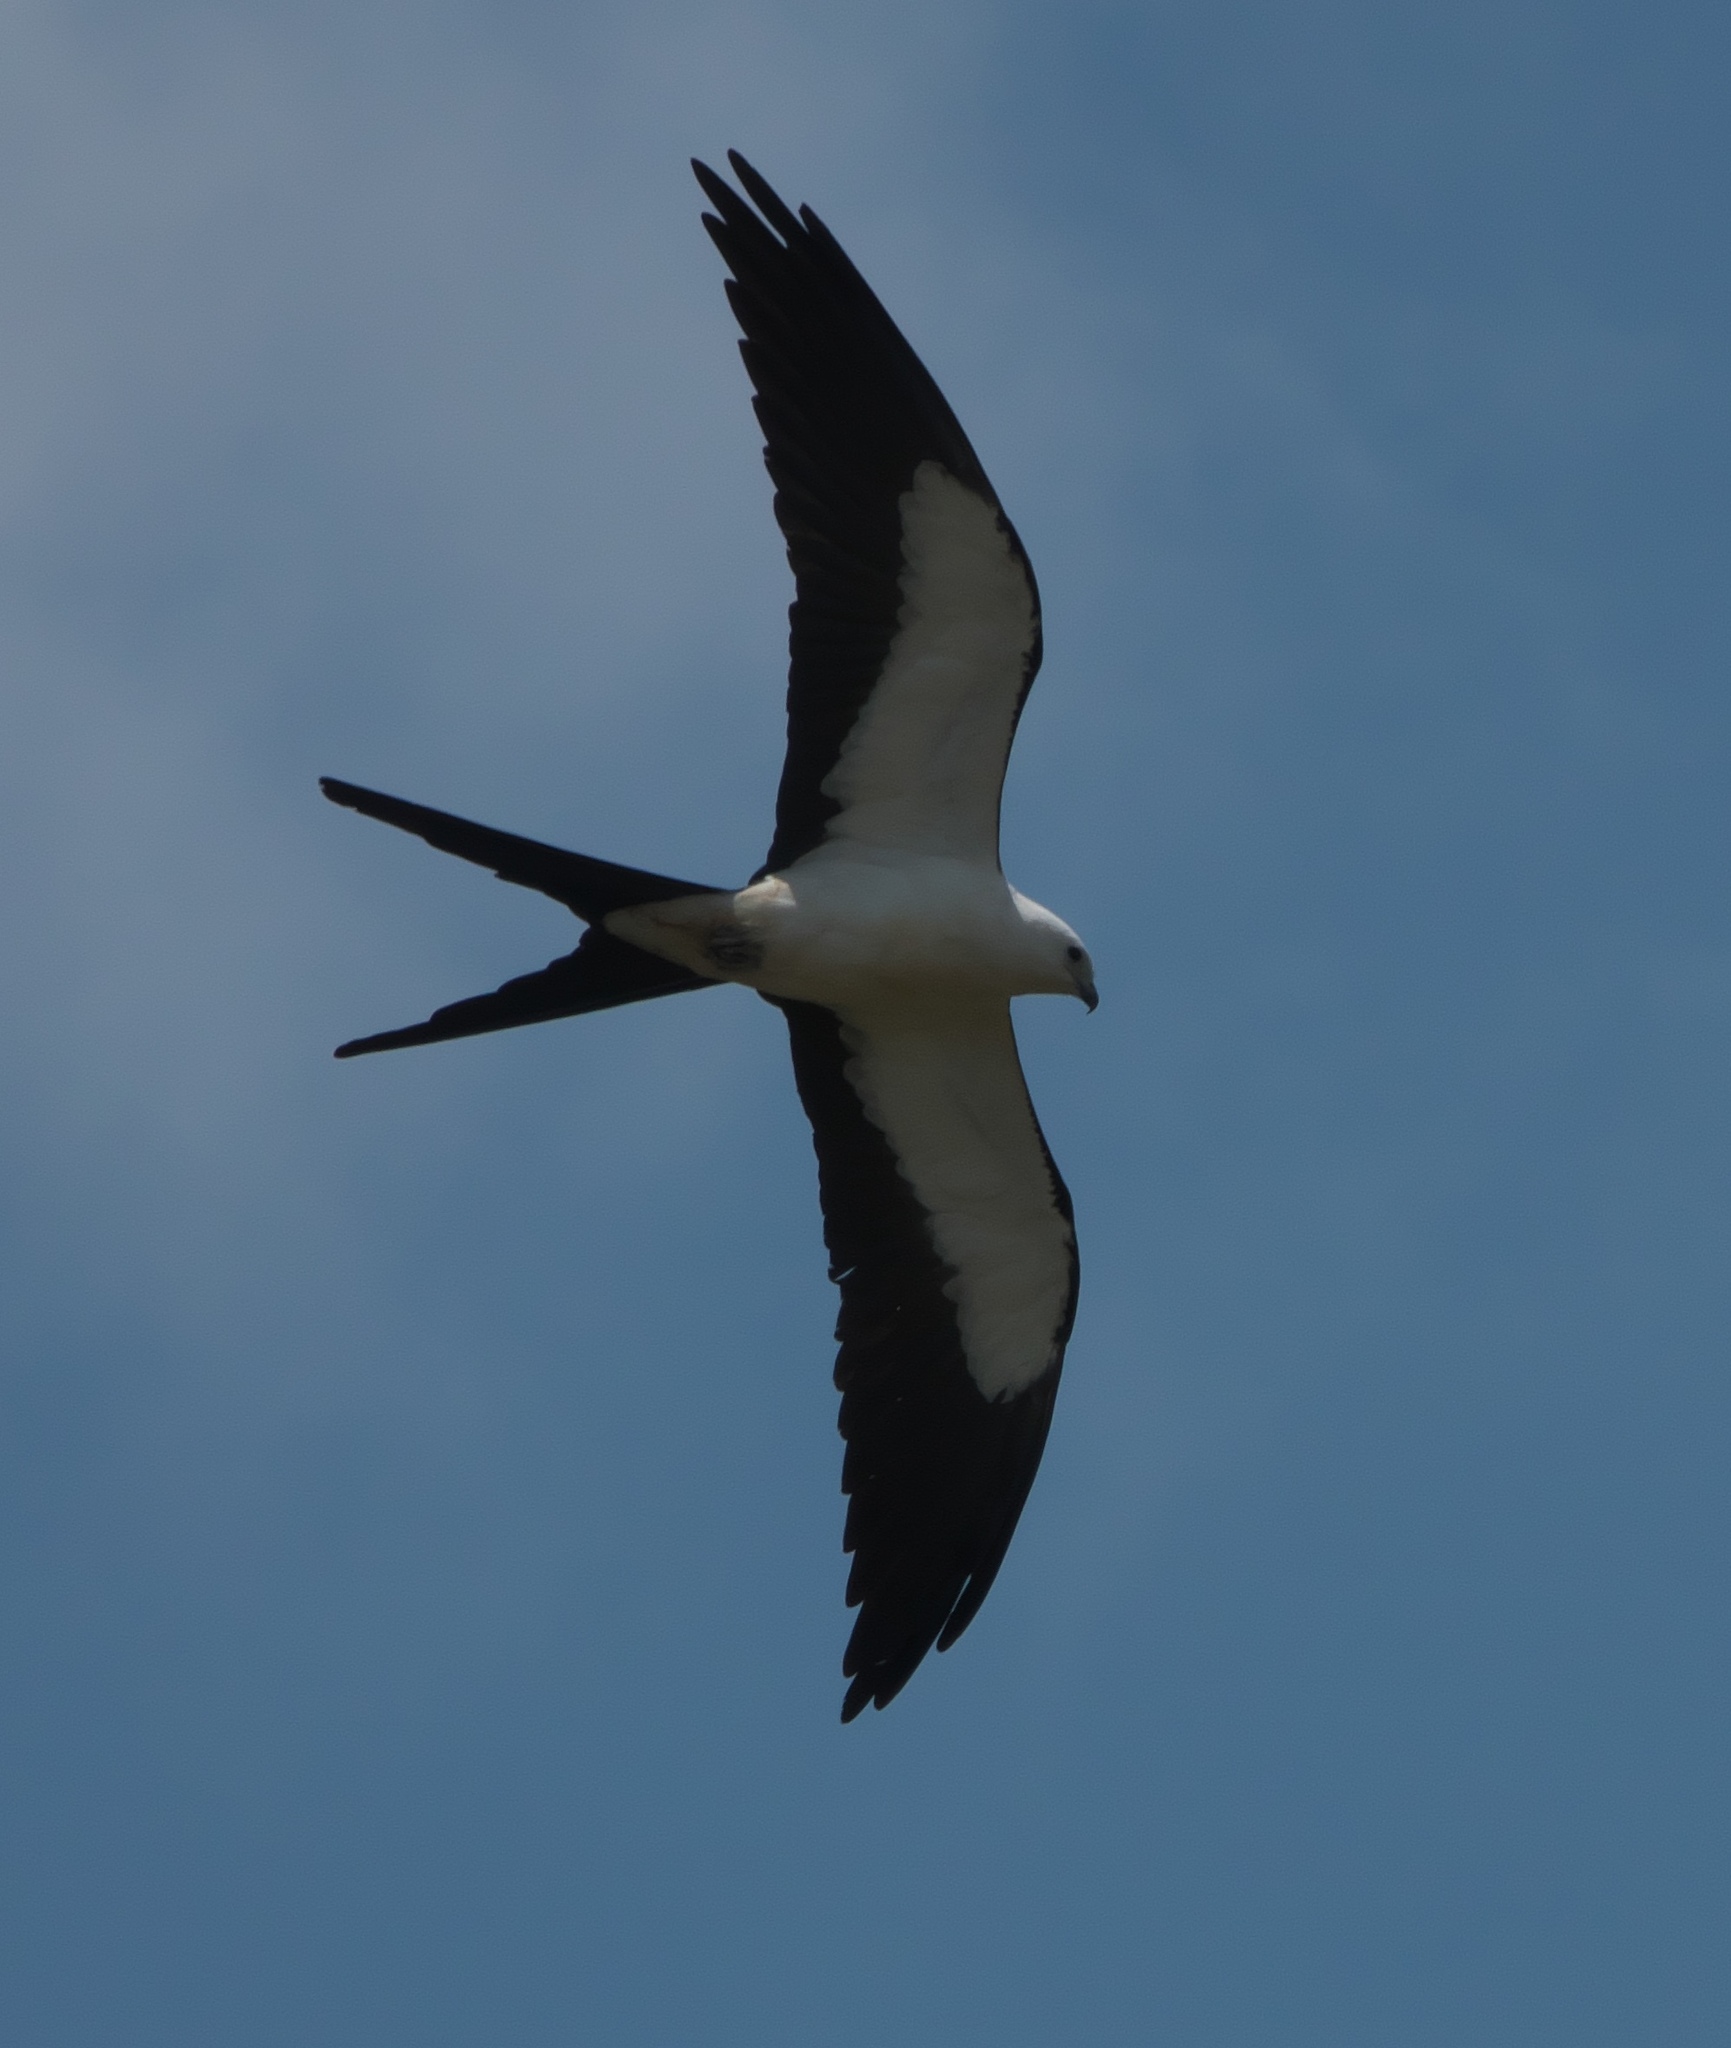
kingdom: Animalia
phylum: Chordata
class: Aves
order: Accipitriformes
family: Accipitridae
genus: Elanoides
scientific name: Elanoides forficatus
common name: Swallow-tailed kite
